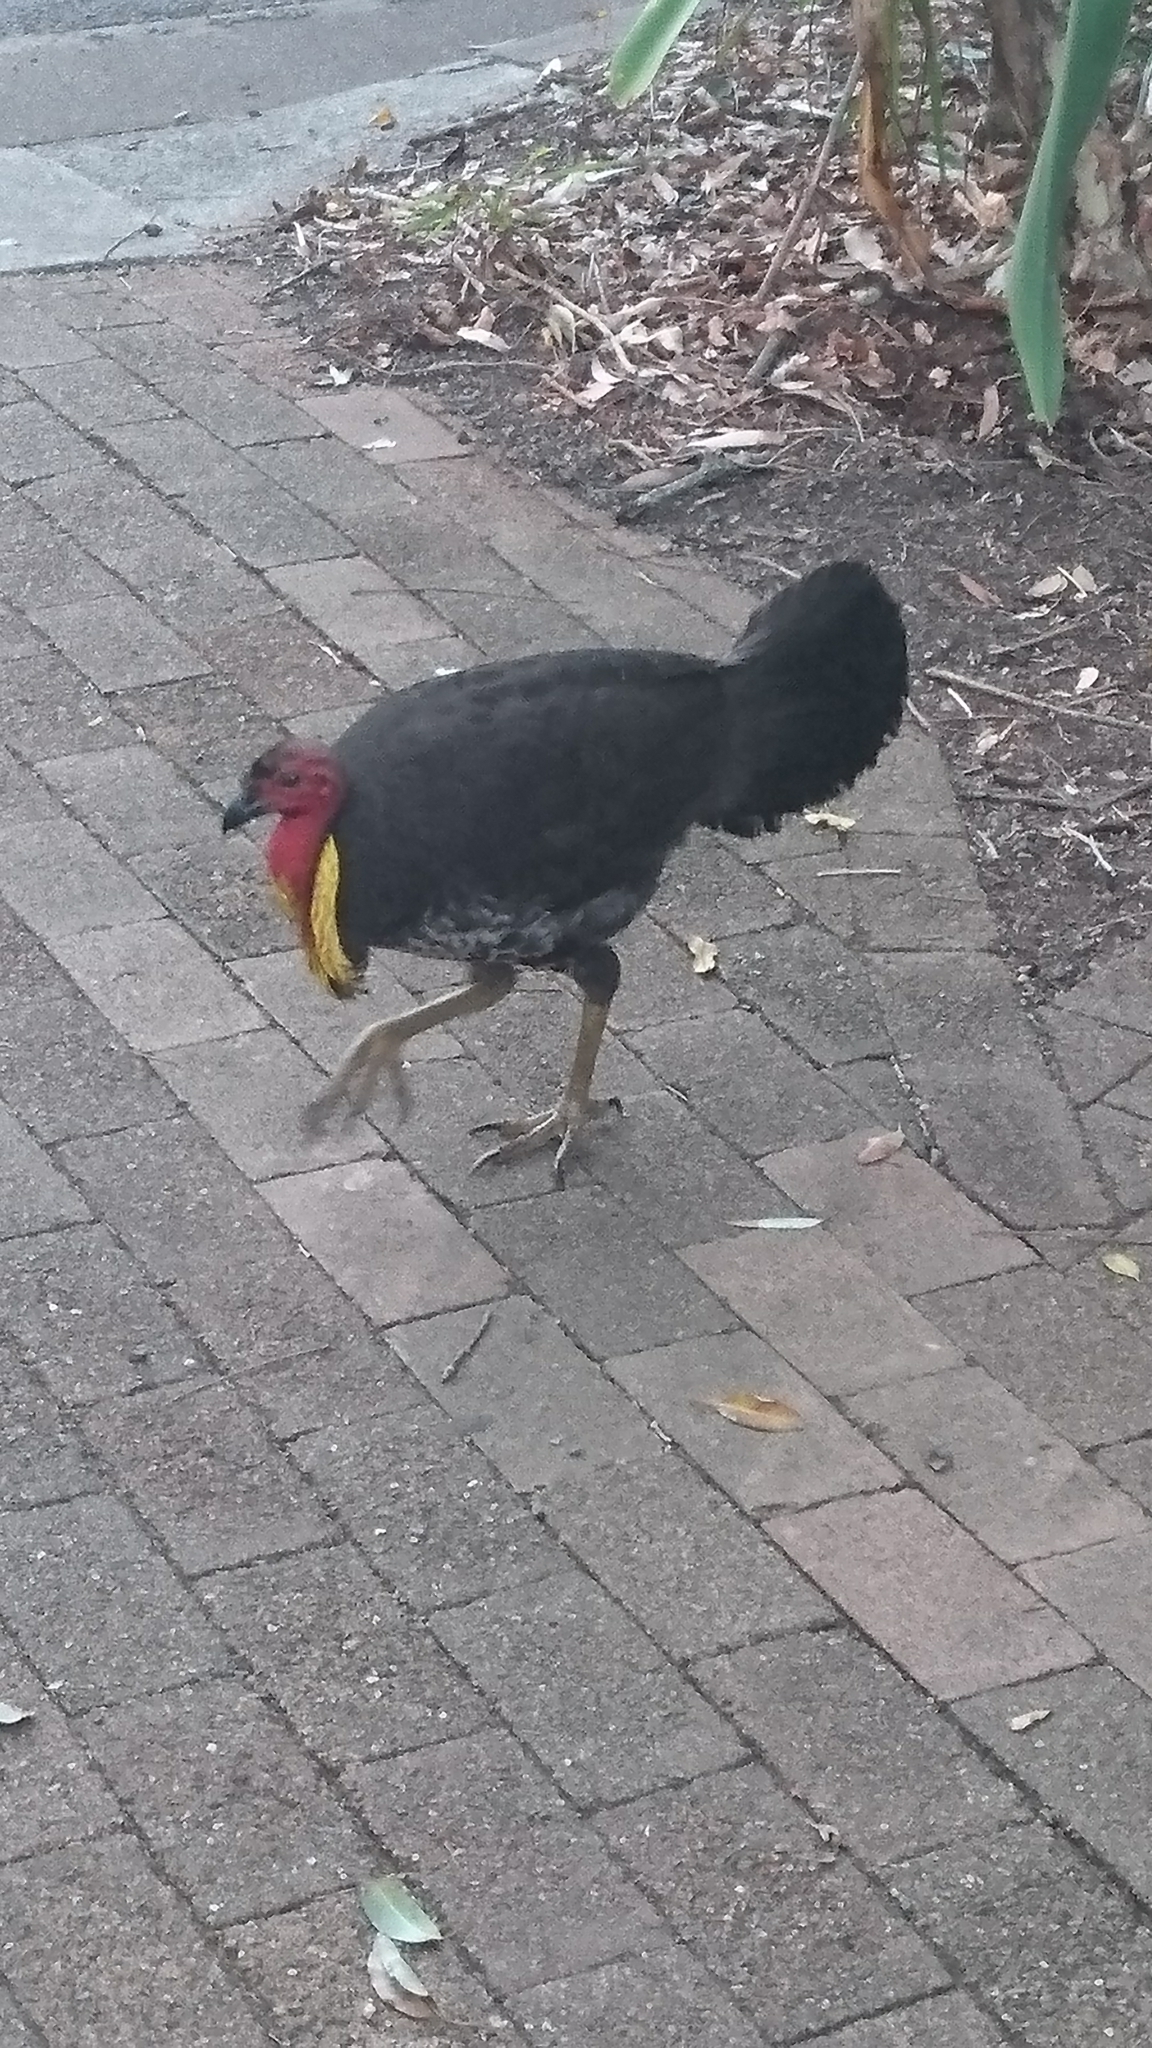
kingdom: Animalia
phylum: Chordata
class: Aves
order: Galliformes
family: Megapodiidae
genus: Alectura
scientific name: Alectura lathami
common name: Australian brushturkey
